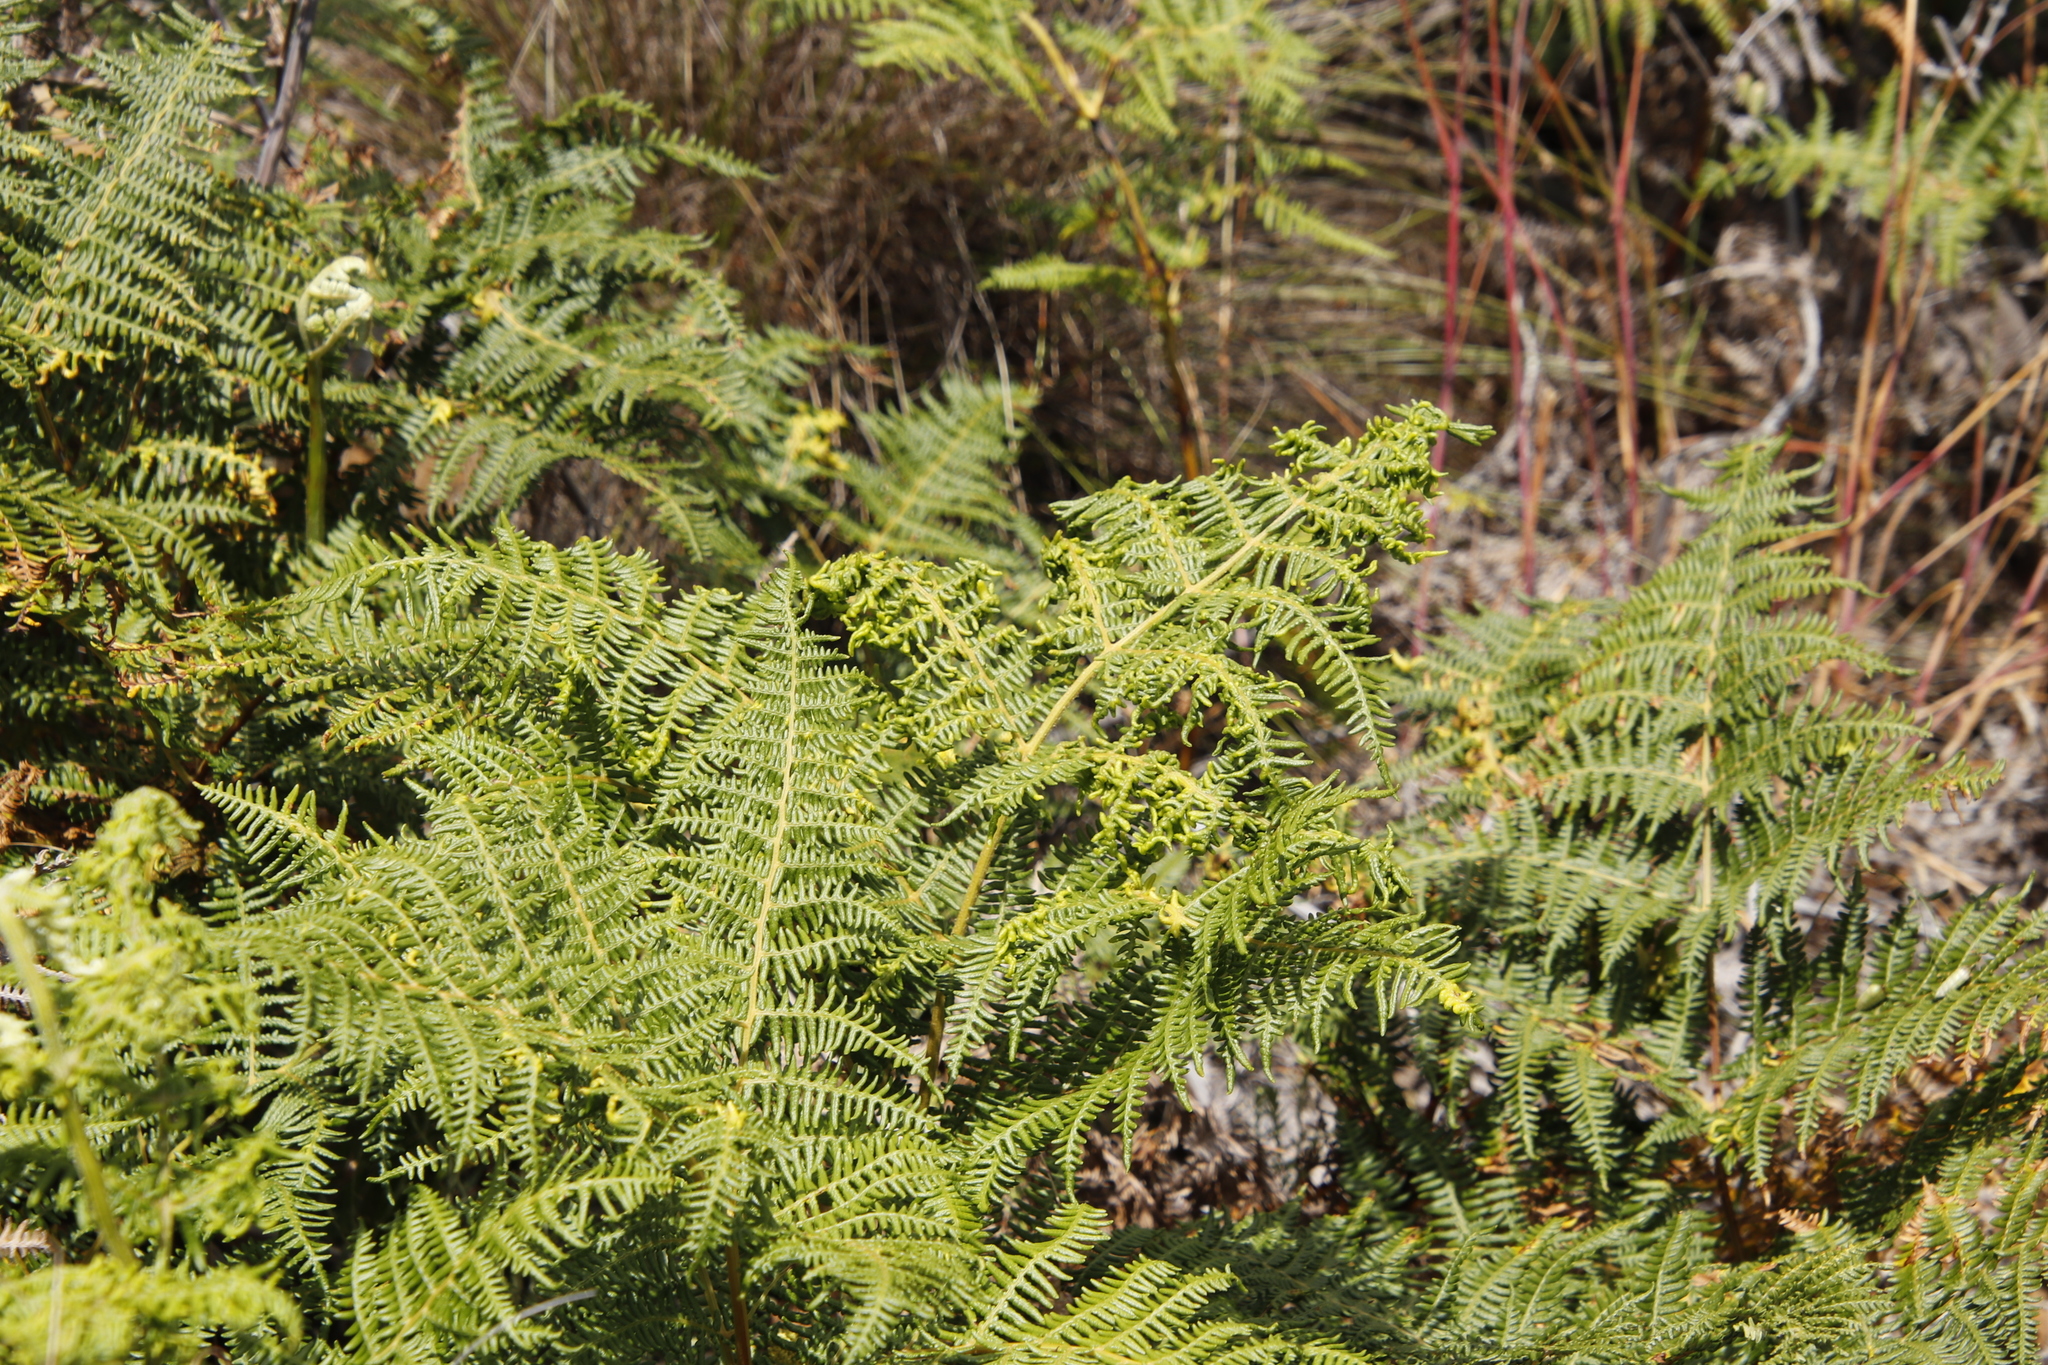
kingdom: Animalia
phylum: Arthropoda
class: Arachnida
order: Trombidiformes
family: Eriophyidae
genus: Eriophyes
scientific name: Eriophyes
